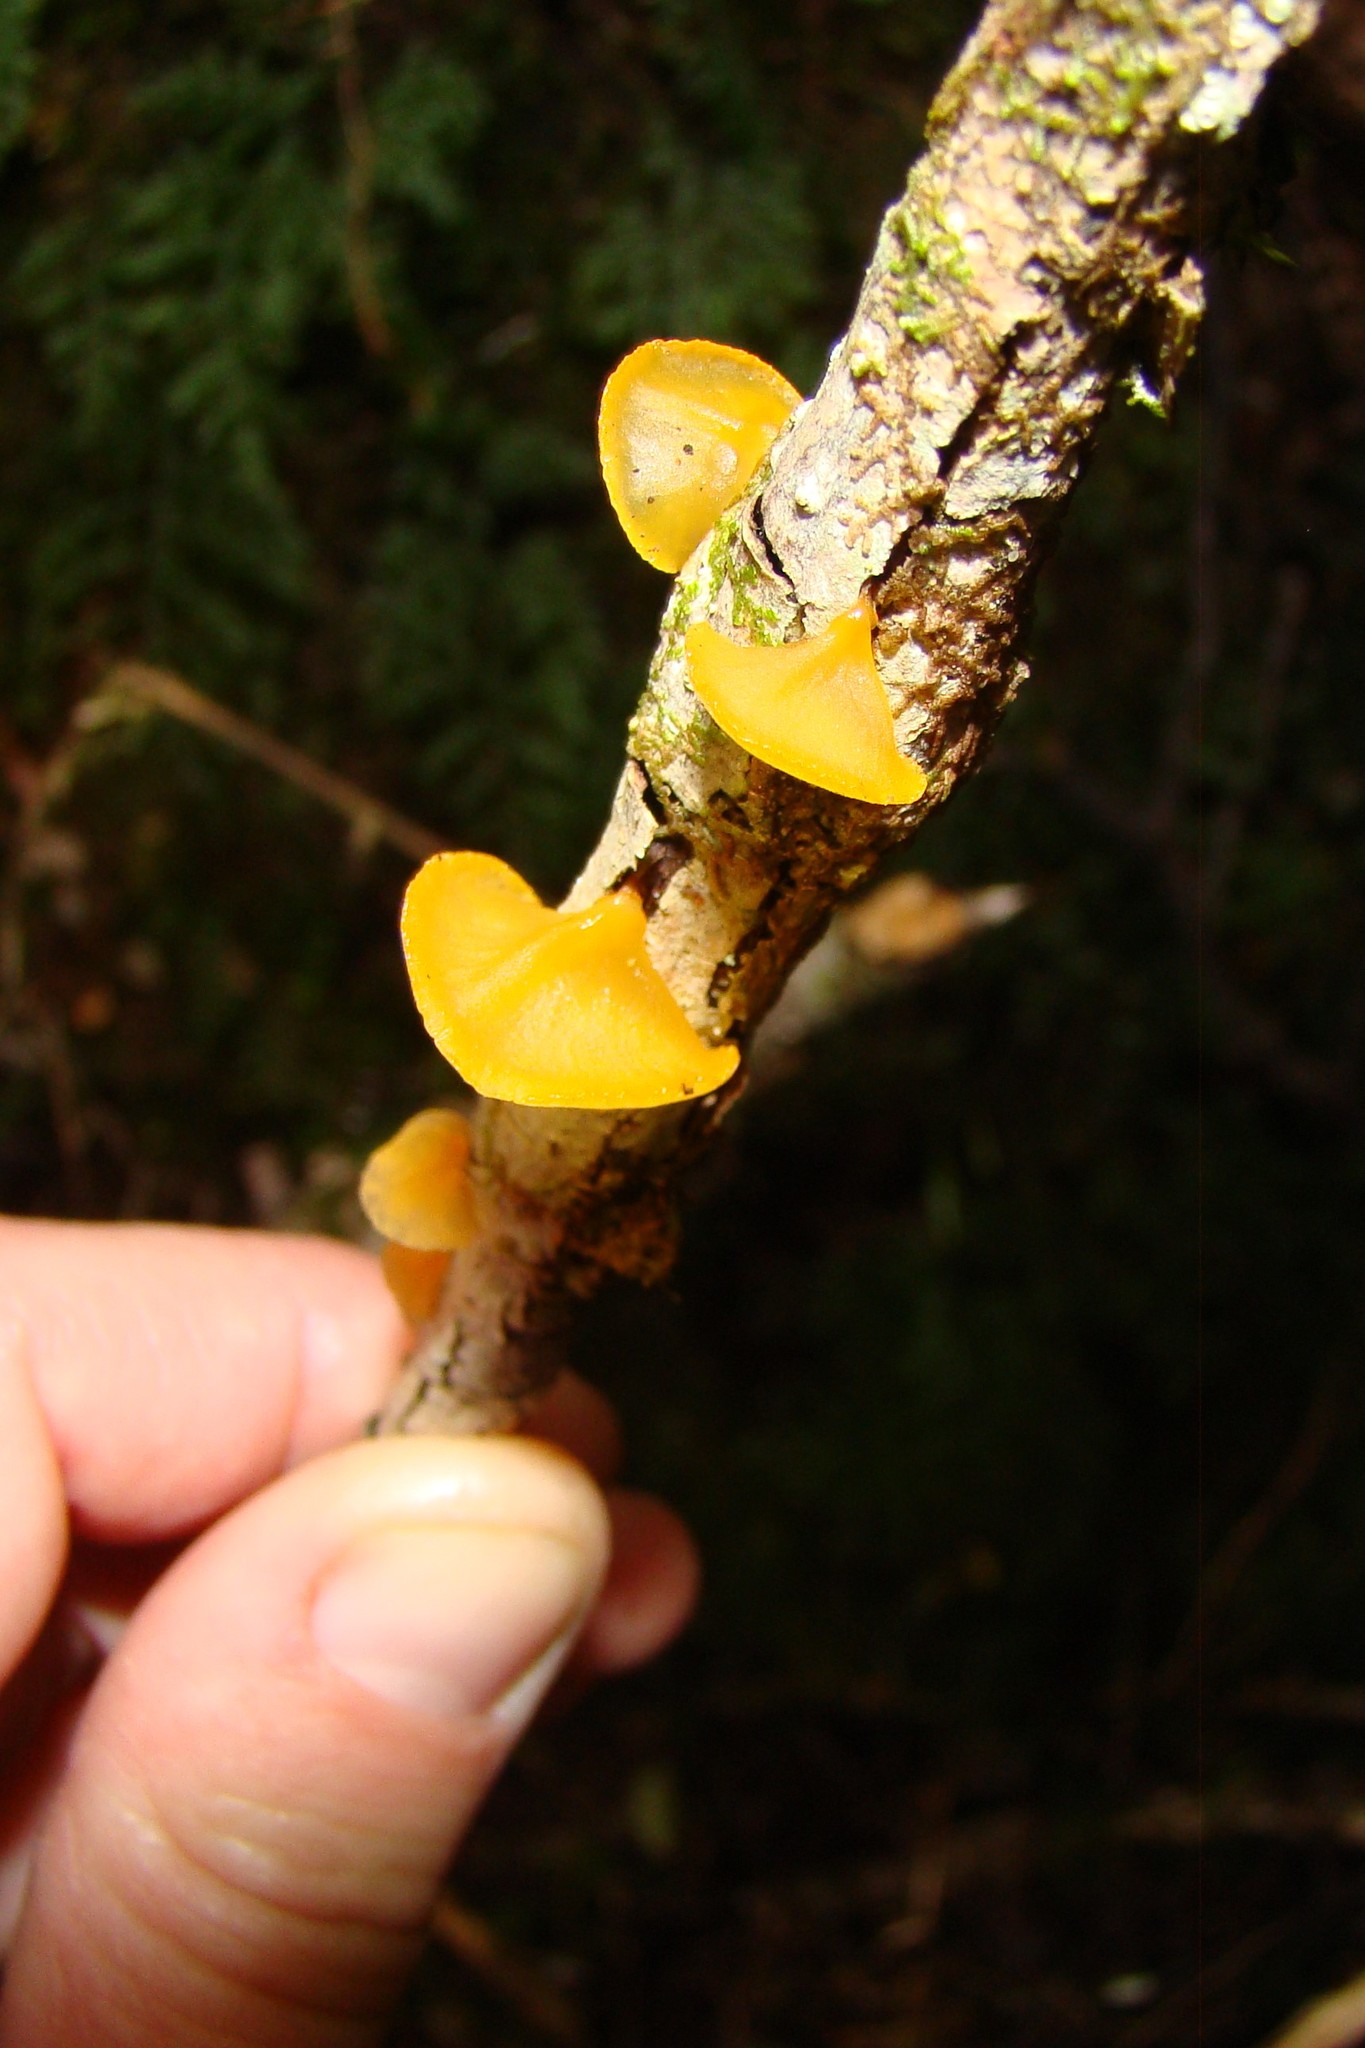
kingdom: Fungi
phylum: Basidiomycota
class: Dacrymycetes
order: Dacrymycetales
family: Dacrymycetaceae
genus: Heterotextus
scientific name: Heterotextus miltinus
